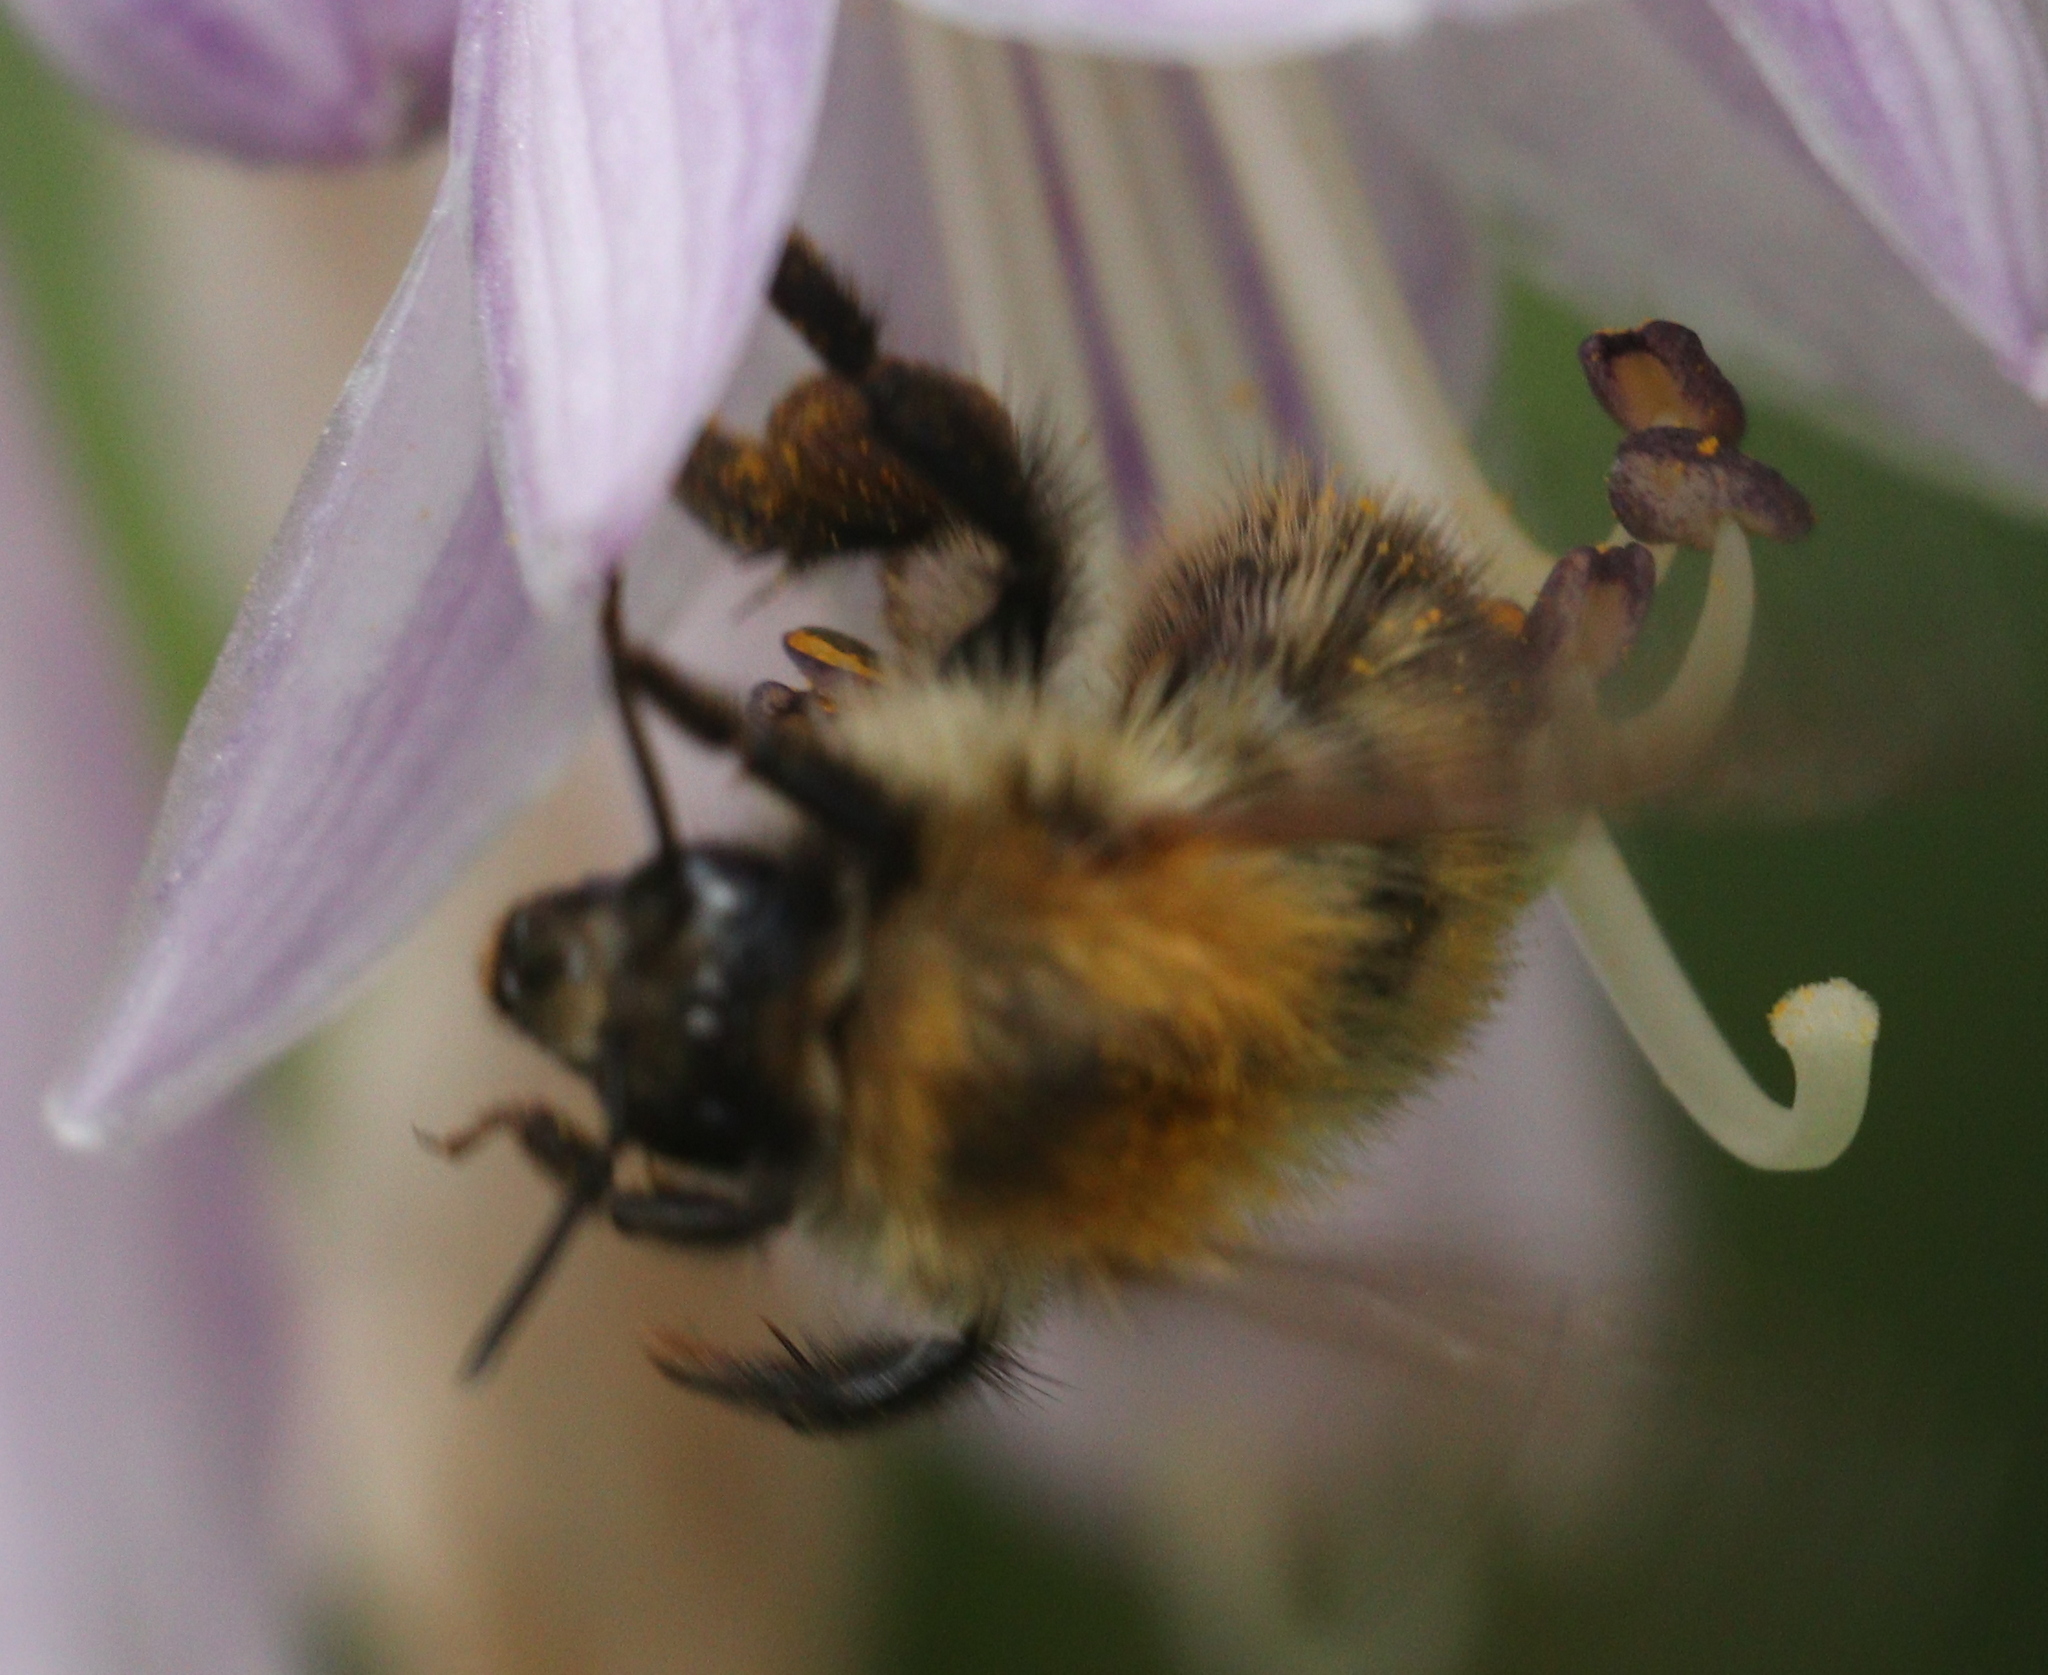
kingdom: Animalia
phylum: Arthropoda
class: Insecta
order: Hymenoptera
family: Apidae
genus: Bombus
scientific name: Bombus pascuorum
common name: Common carder bee
